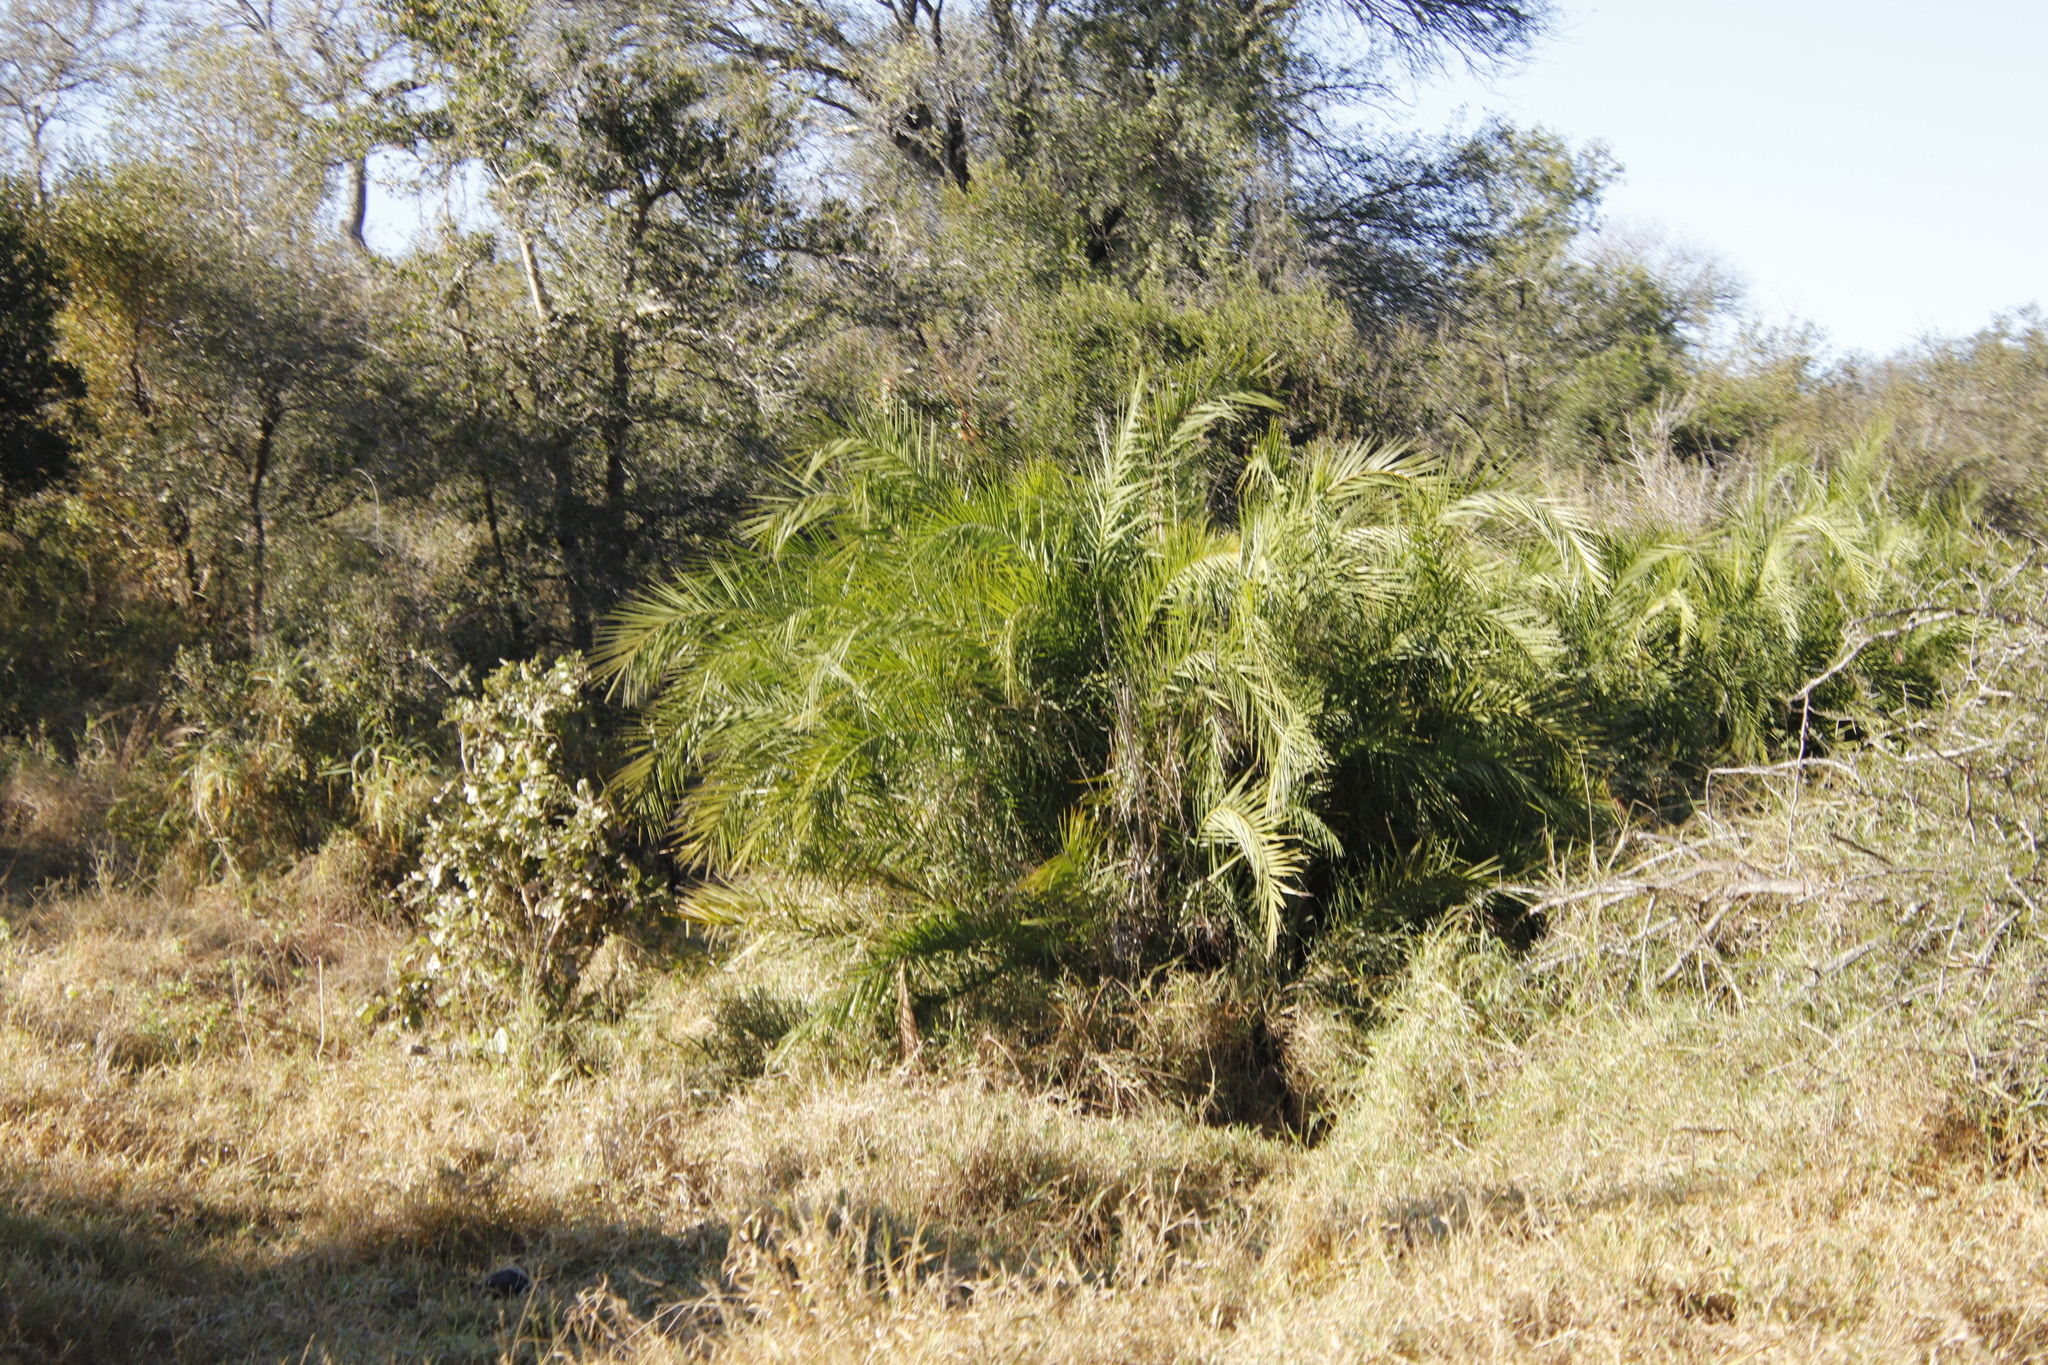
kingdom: Plantae
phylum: Tracheophyta
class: Liliopsida
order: Arecales
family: Arecaceae
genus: Phoenix
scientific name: Phoenix reclinata
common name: Senegal date palm
